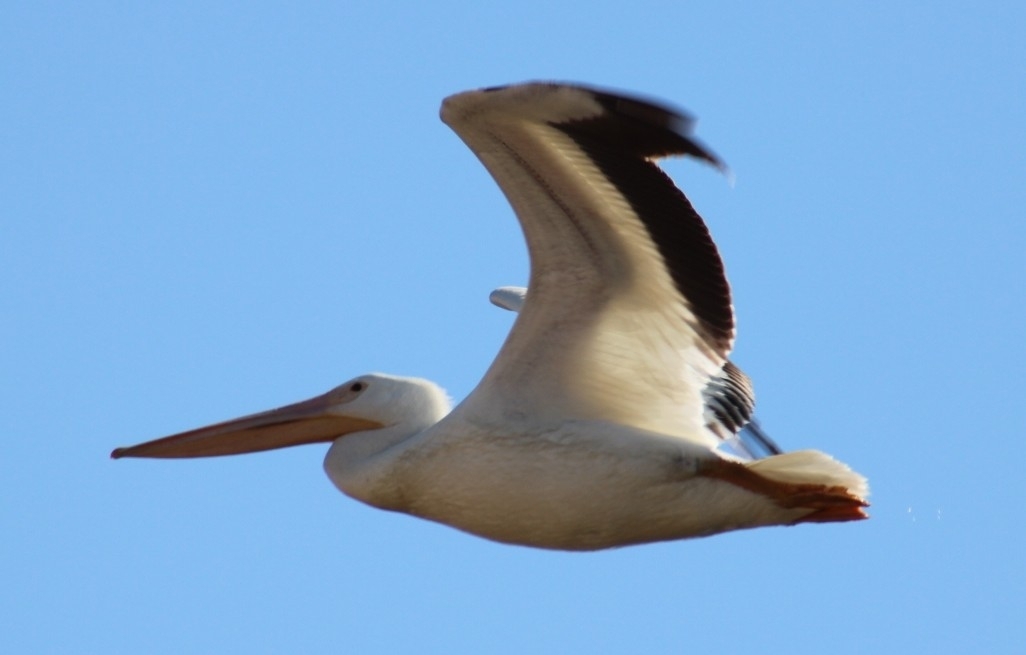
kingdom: Animalia
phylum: Chordata
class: Aves
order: Pelecaniformes
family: Pelecanidae
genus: Pelecanus
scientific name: Pelecanus erythrorhynchos
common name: American white pelican
